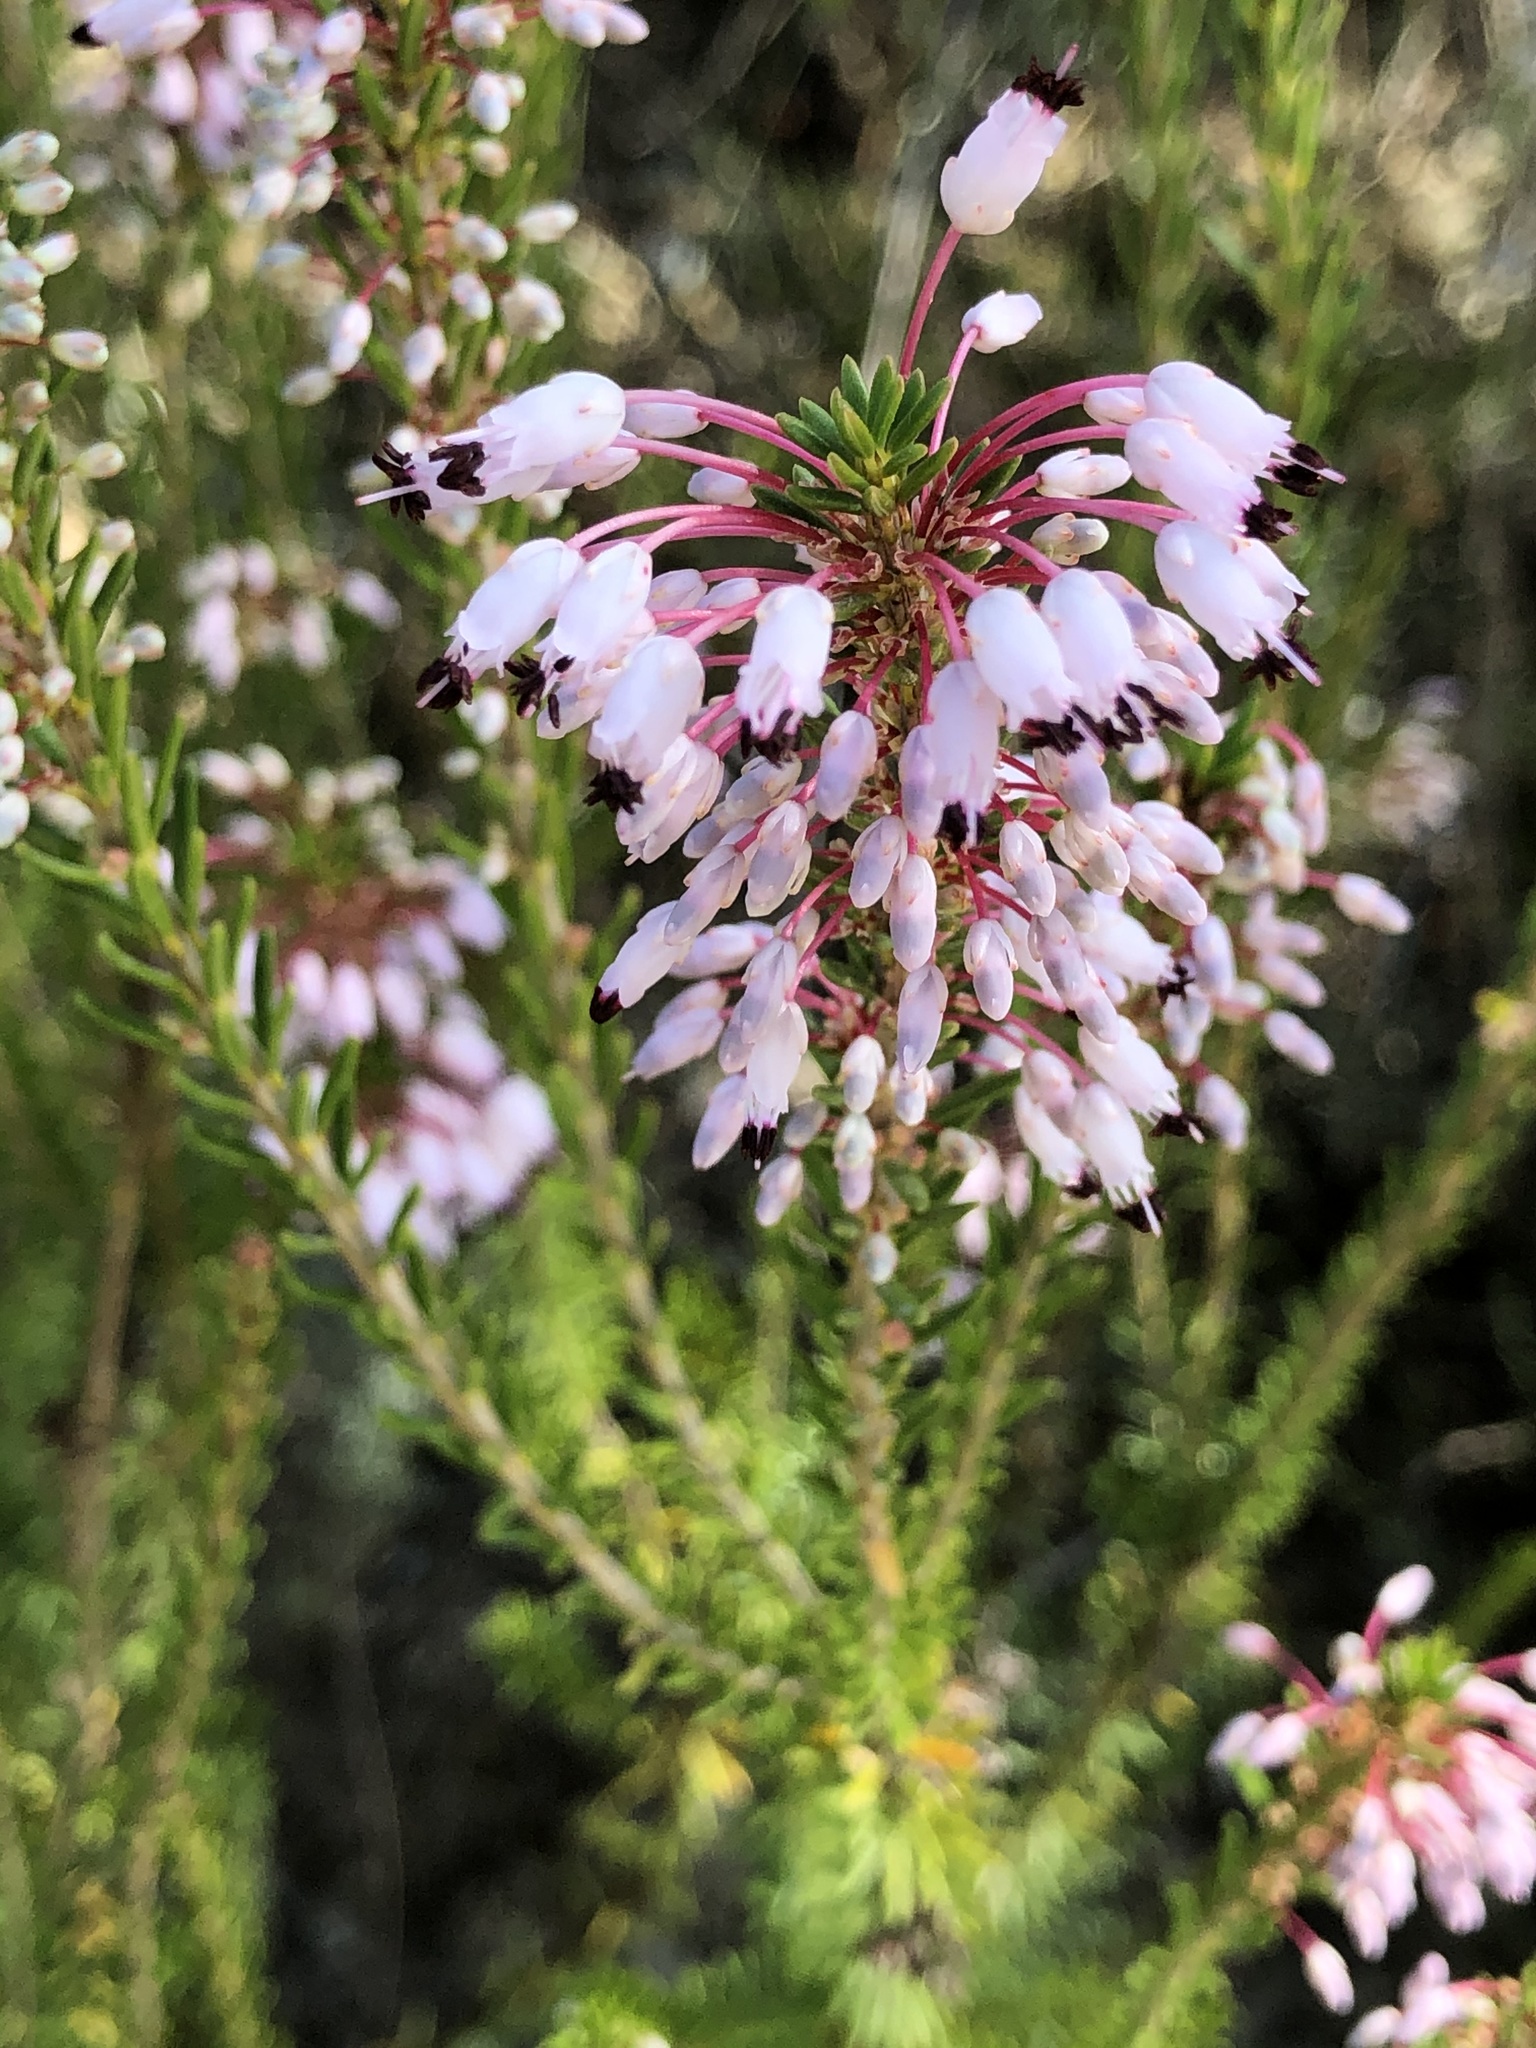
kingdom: Plantae
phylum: Tracheophyta
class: Magnoliopsida
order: Ericales
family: Ericaceae
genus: Erica
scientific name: Erica multiflora
